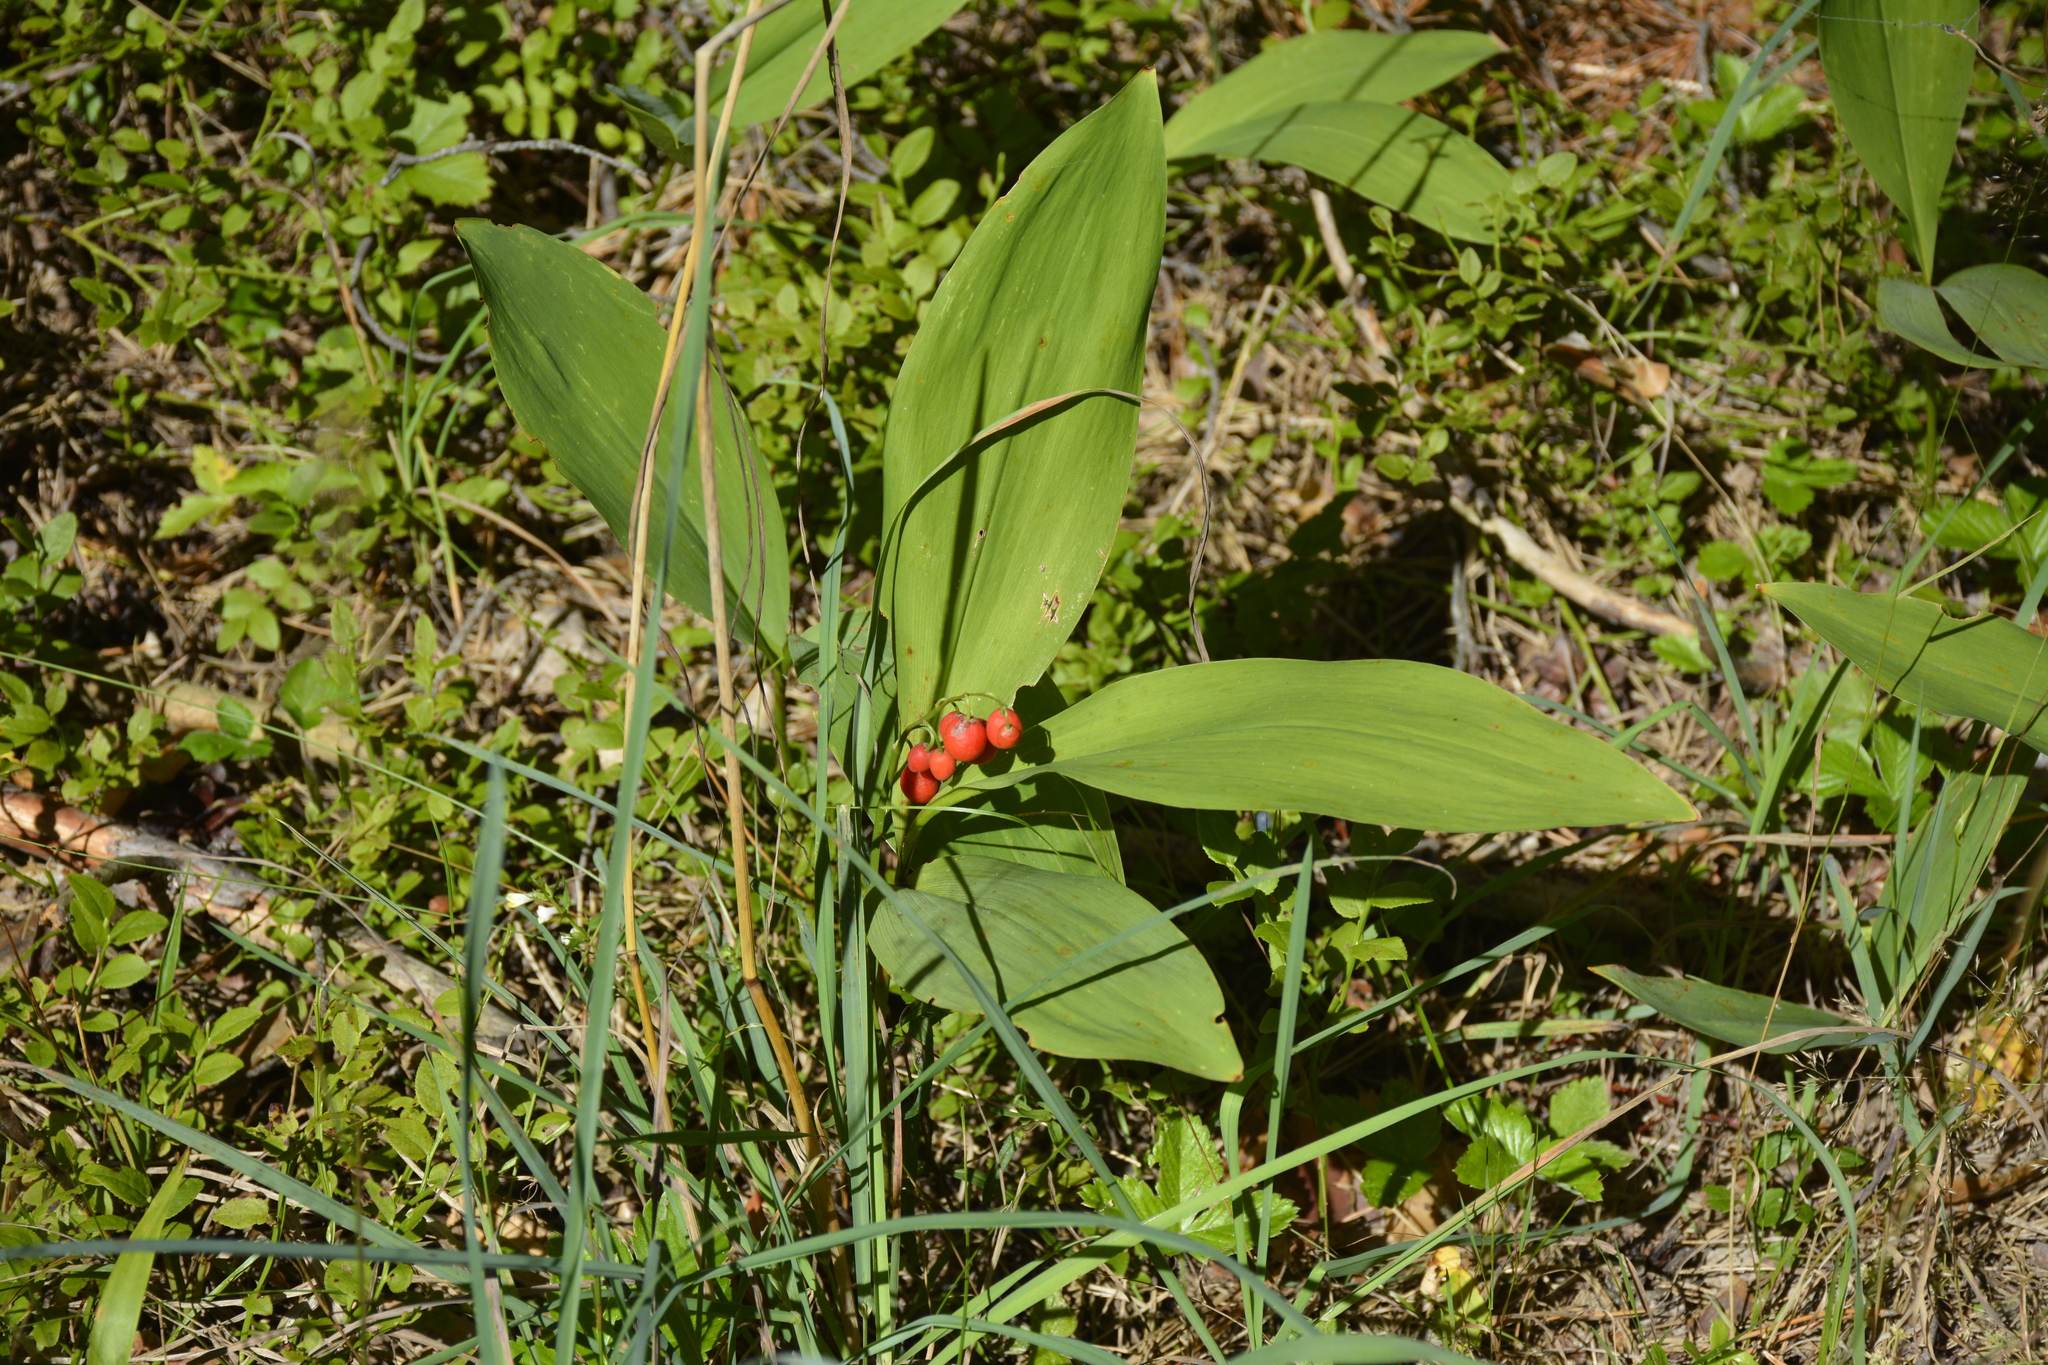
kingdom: Plantae
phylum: Tracheophyta
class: Liliopsida
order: Asparagales
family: Asparagaceae
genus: Convallaria
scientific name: Convallaria majalis
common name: Lily-of-the-valley
